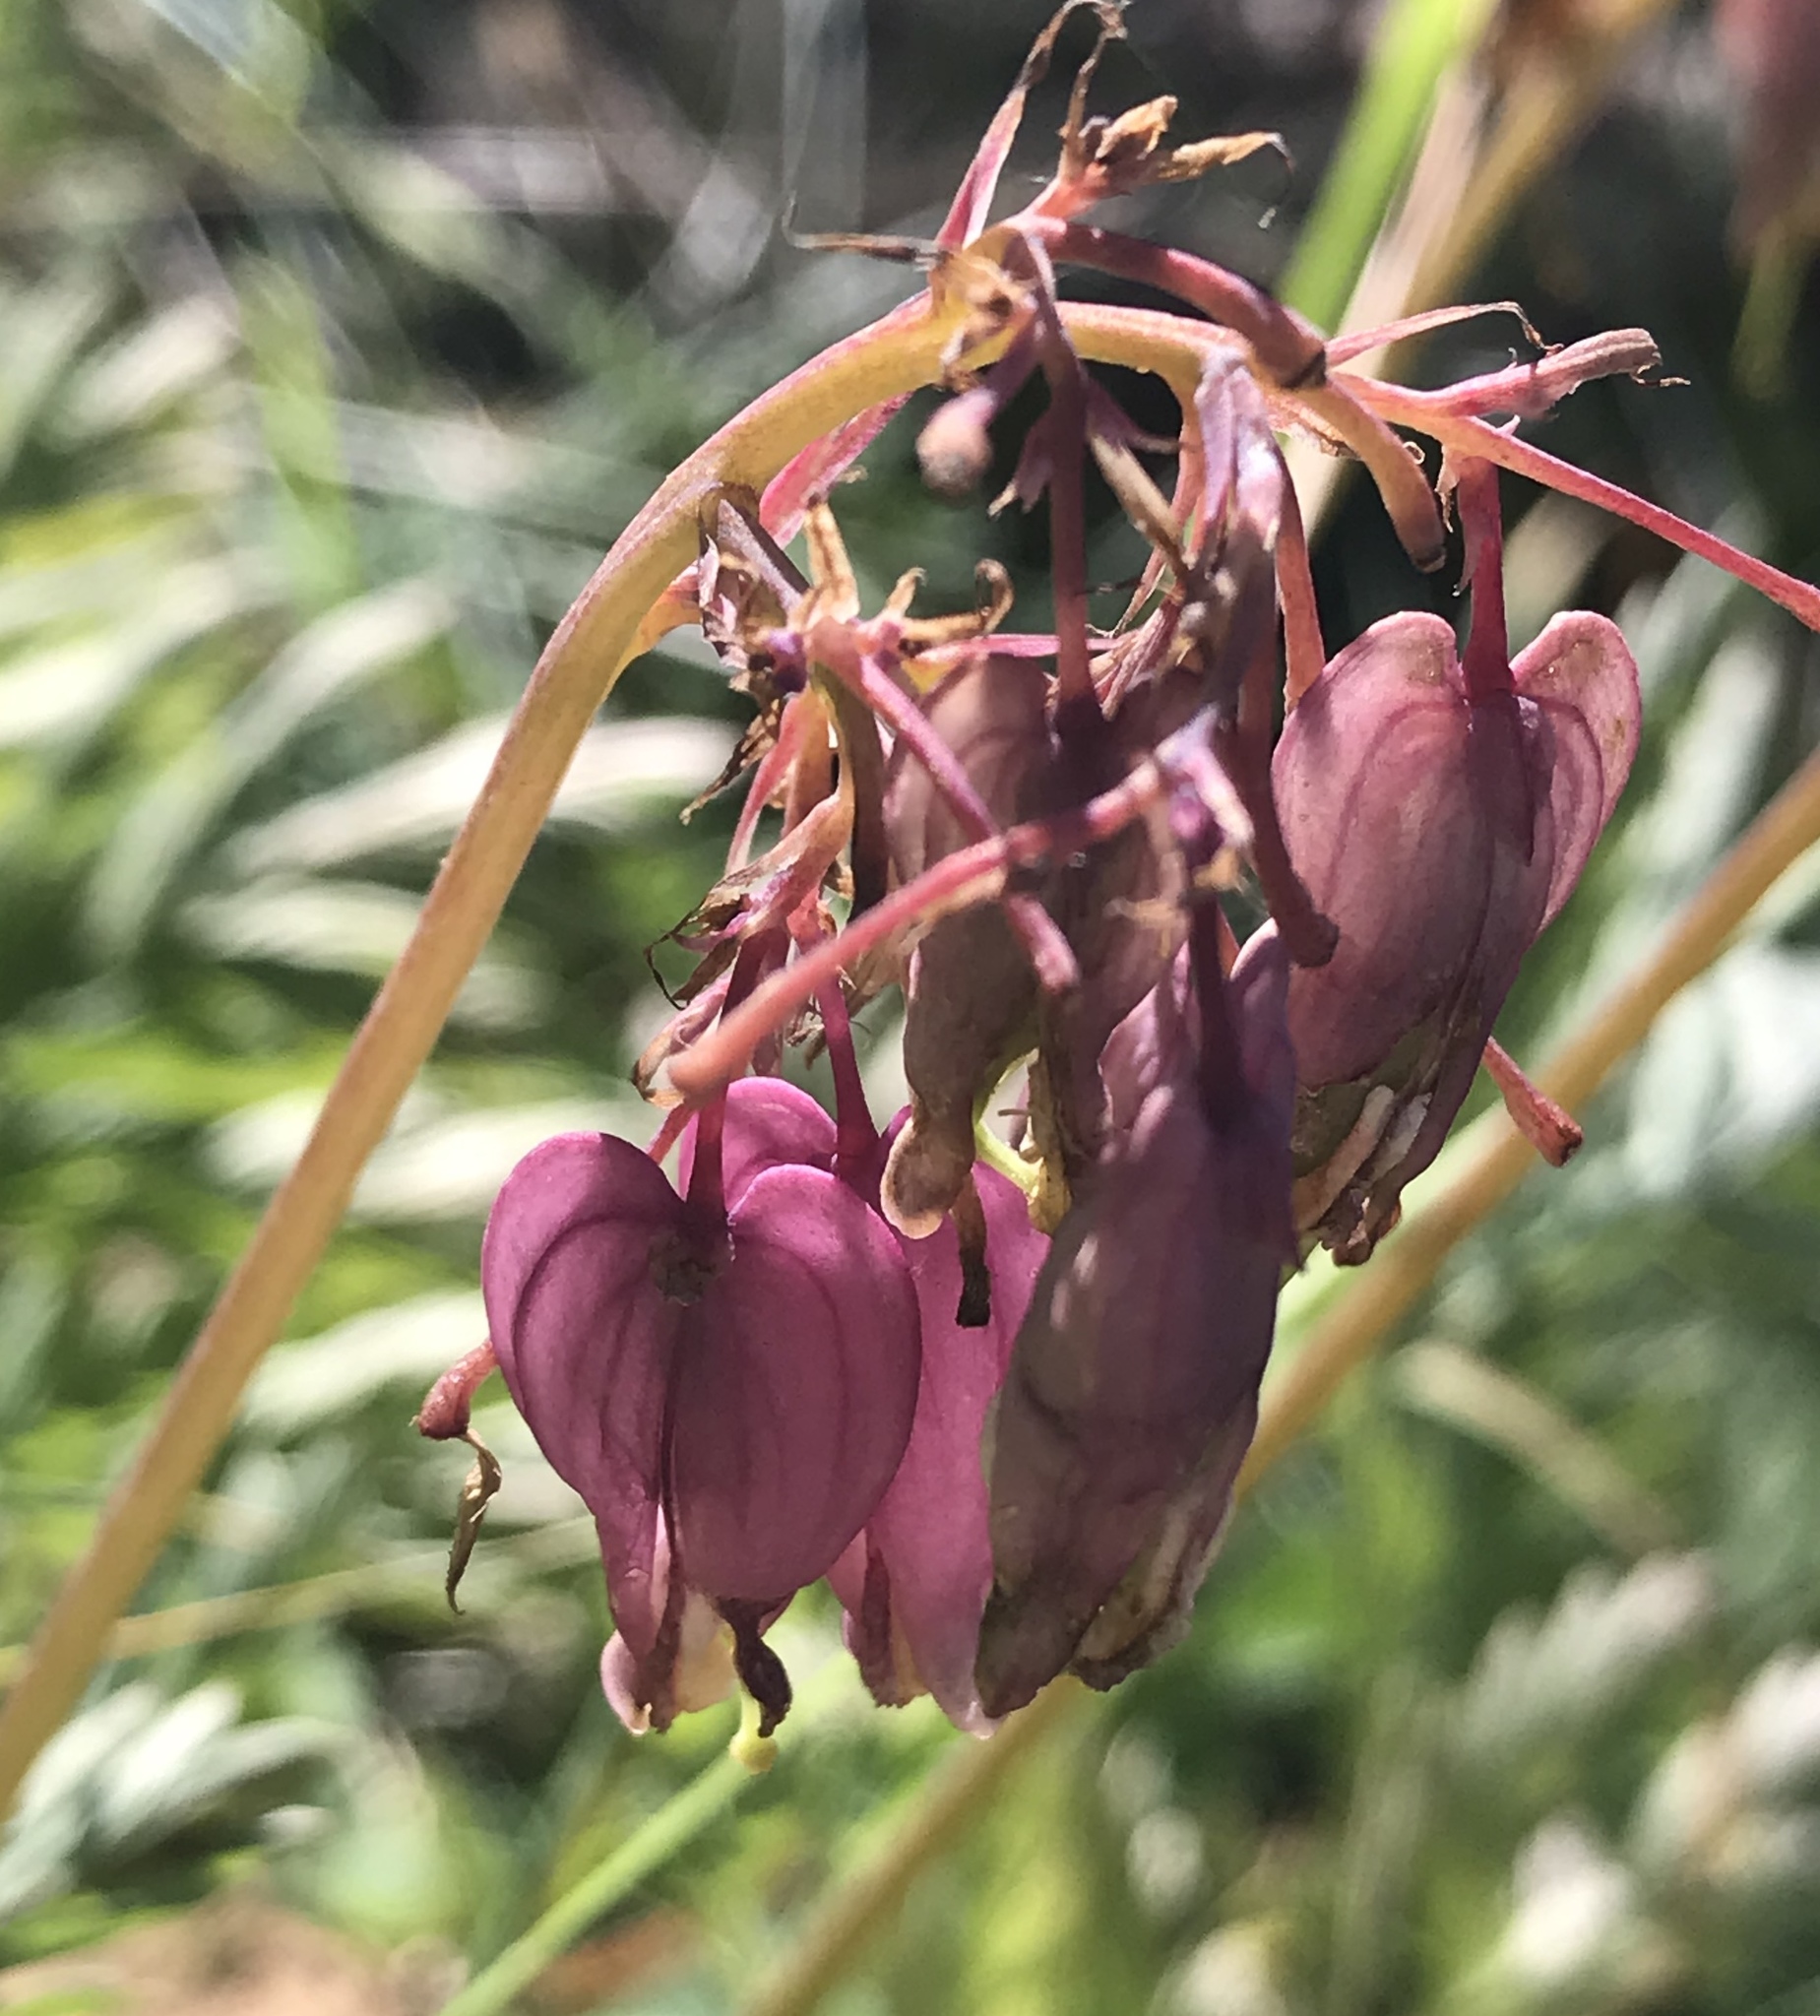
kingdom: Plantae
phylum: Tracheophyta
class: Magnoliopsida
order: Ranunculales
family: Papaveraceae
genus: Dicentra
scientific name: Dicentra formosa
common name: Bleeding-heart
